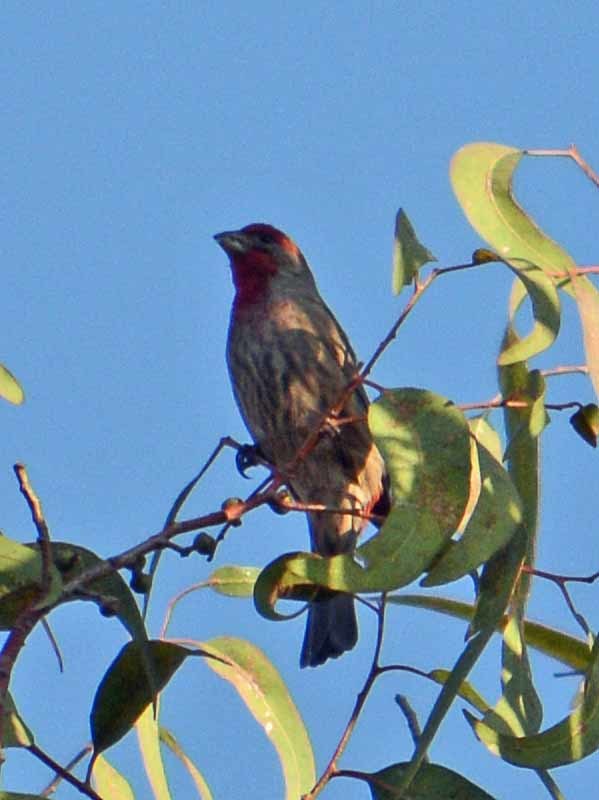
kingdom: Animalia
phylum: Chordata
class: Aves
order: Passeriformes
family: Fringillidae
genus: Haemorhous
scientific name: Haemorhous mexicanus
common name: House finch
